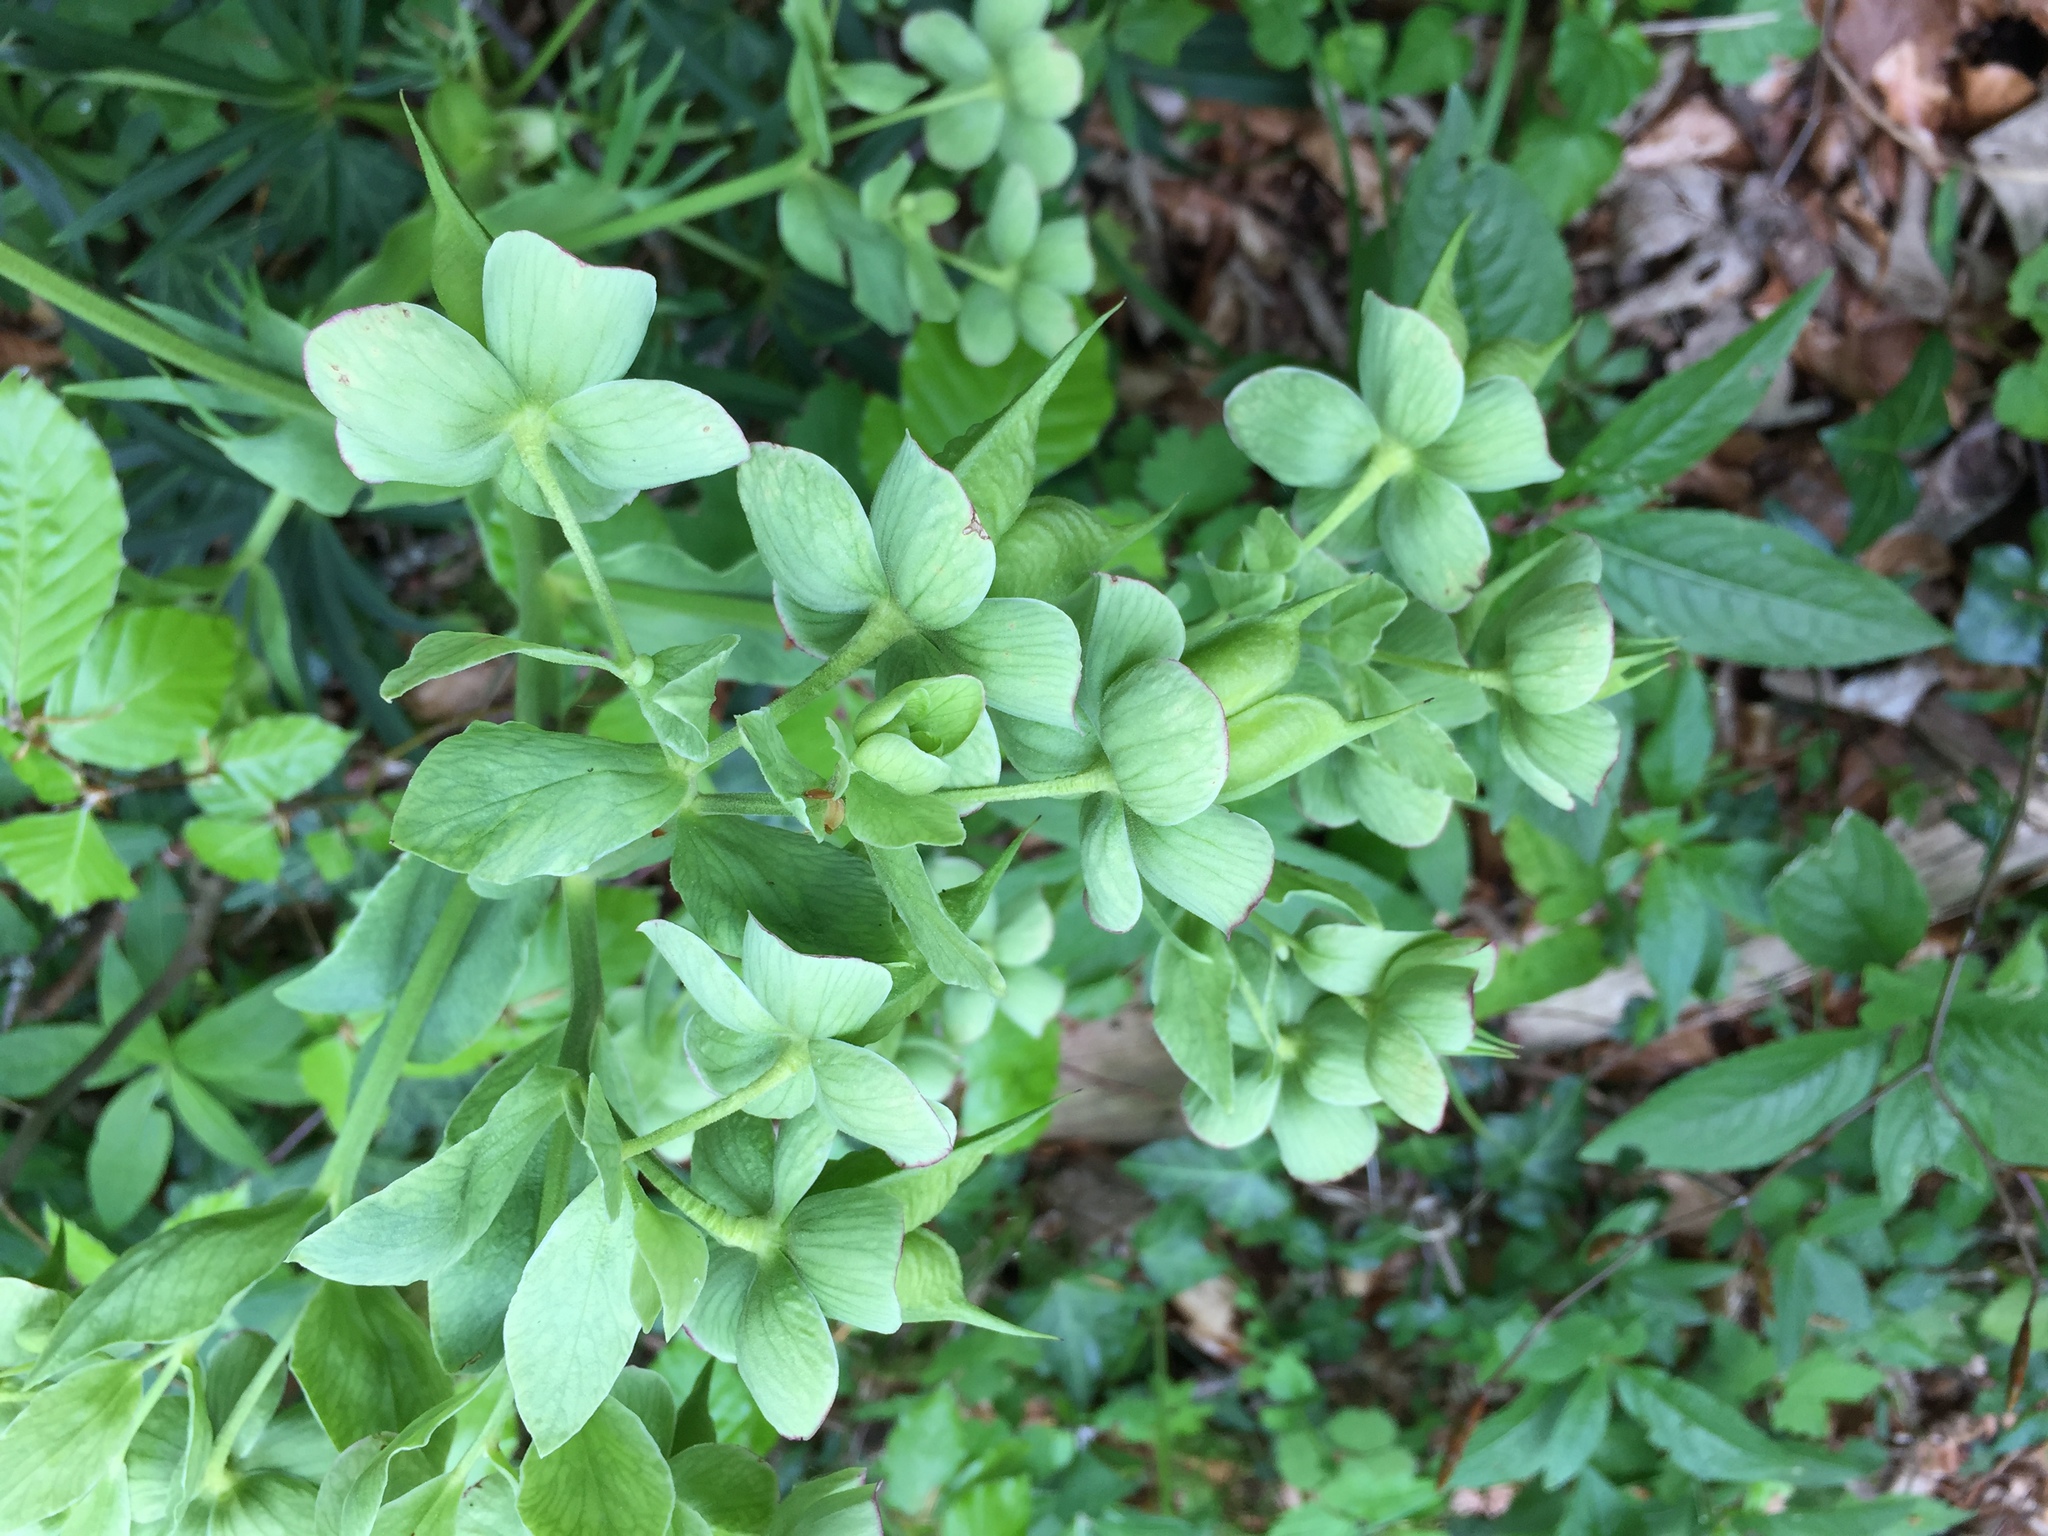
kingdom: Plantae
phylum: Tracheophyta
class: Magnoliopsida
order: Ranunculales
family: Ranunculaceae
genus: Helleborus
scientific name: Helleborus foetidus
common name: Stinking hellebore
